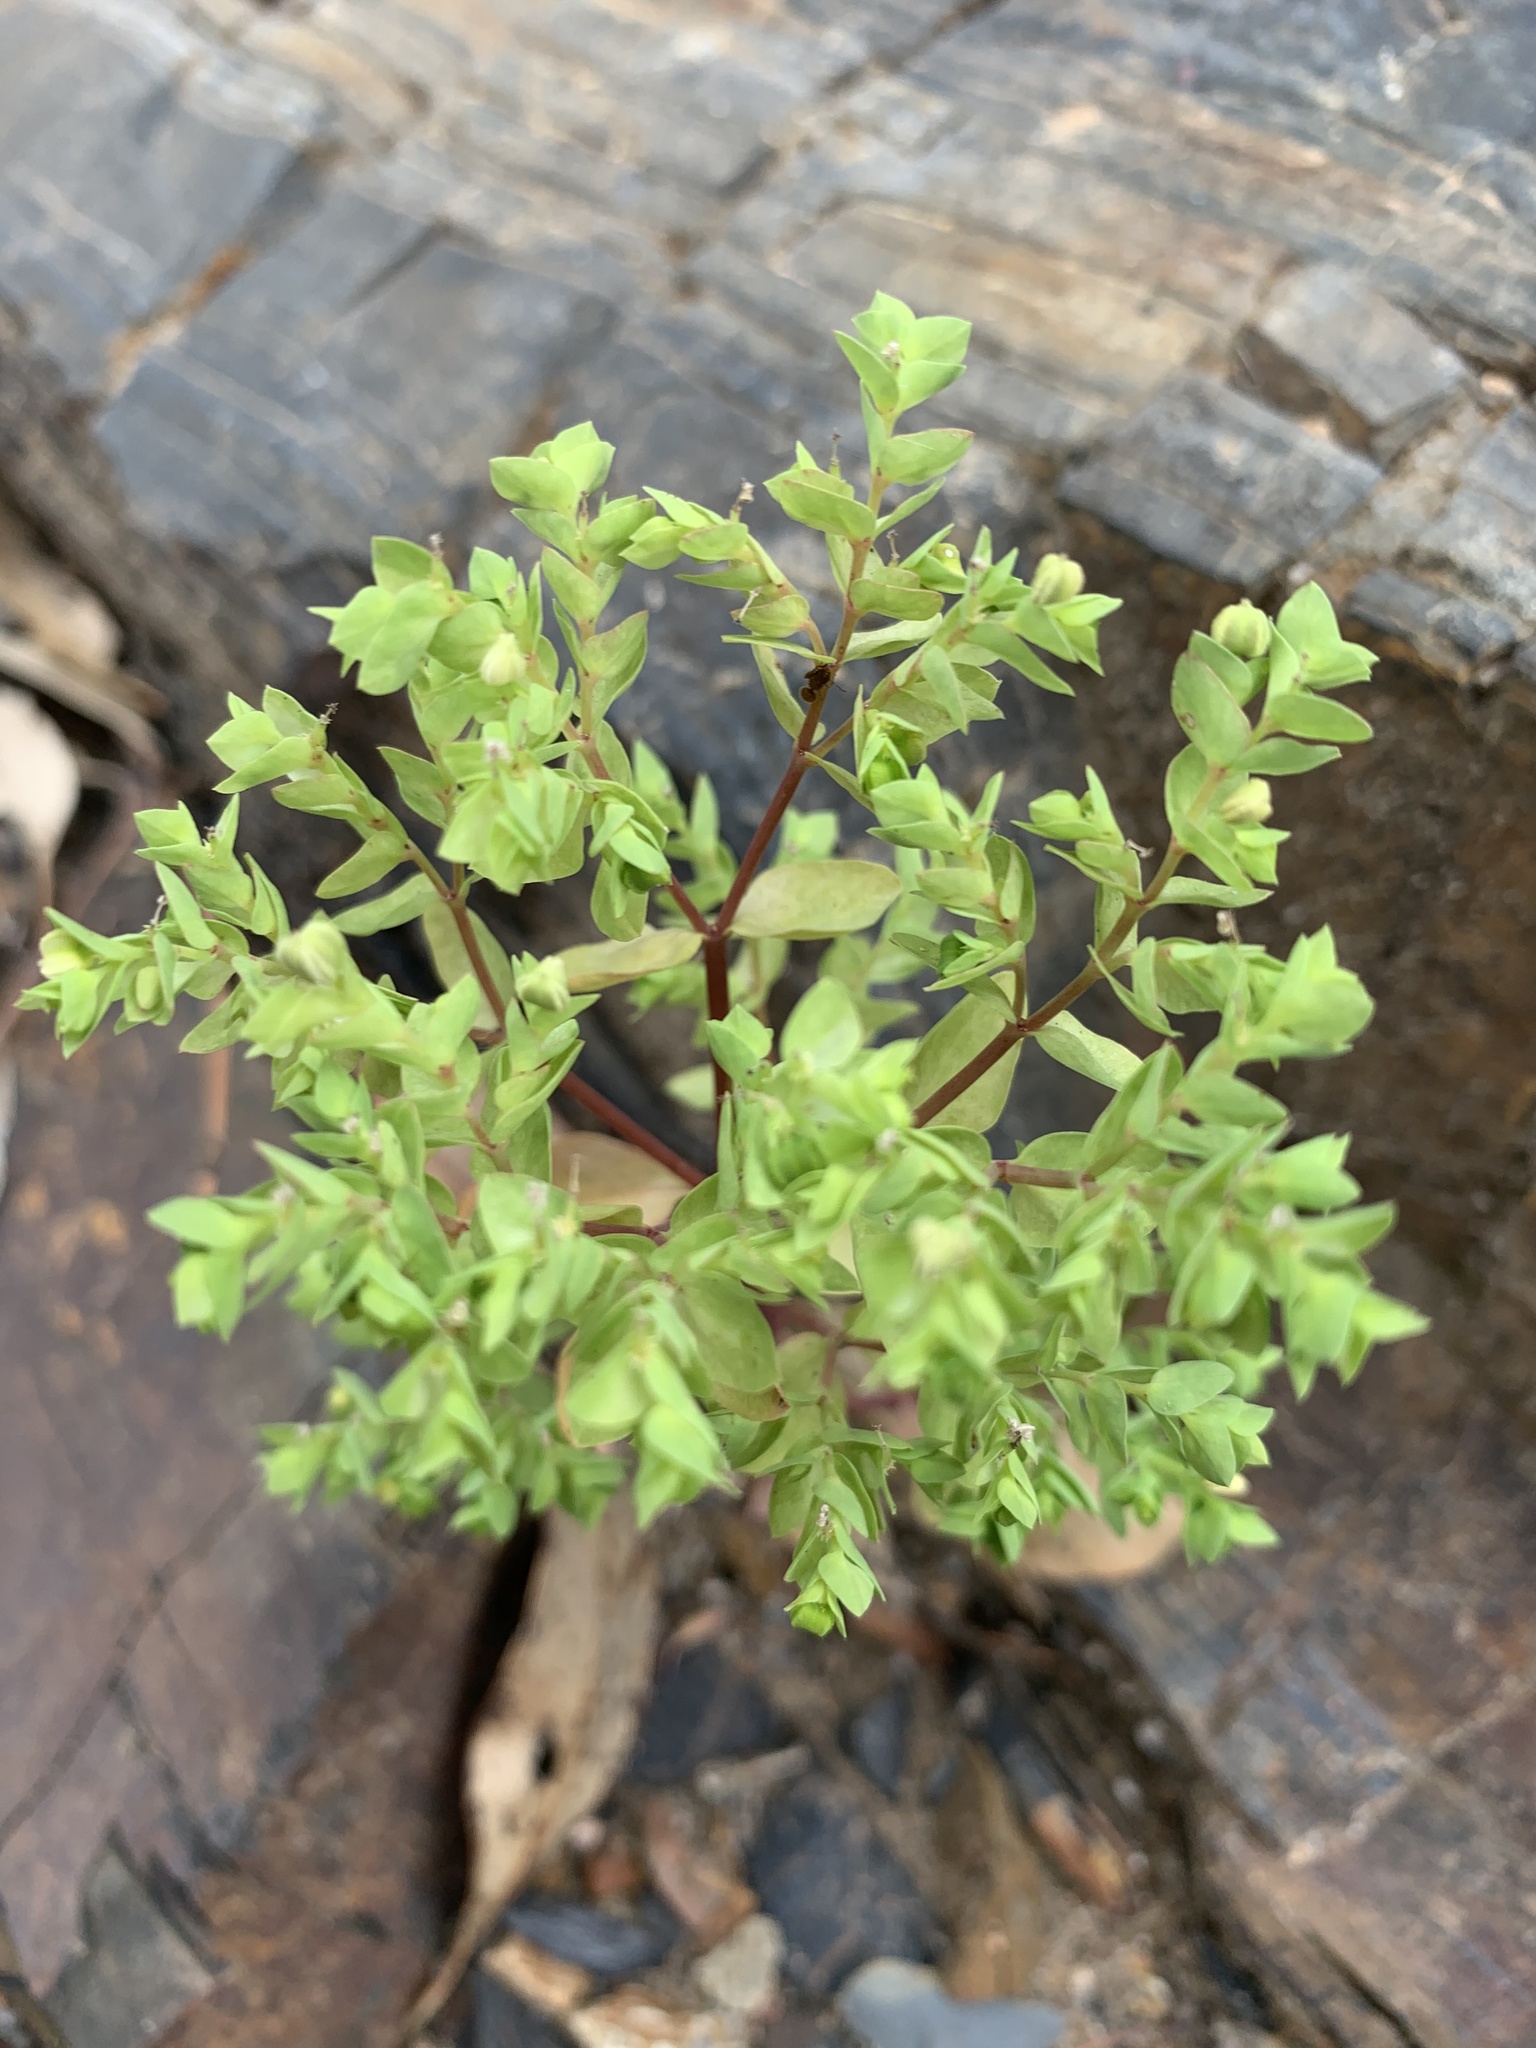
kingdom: Plantae
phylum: Tracheophyta
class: Magnoliopsida
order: Malpighiales
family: Euphorbiaceae
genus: Euphorbia
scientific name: Euphorbia peplus
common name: Petty spurge
